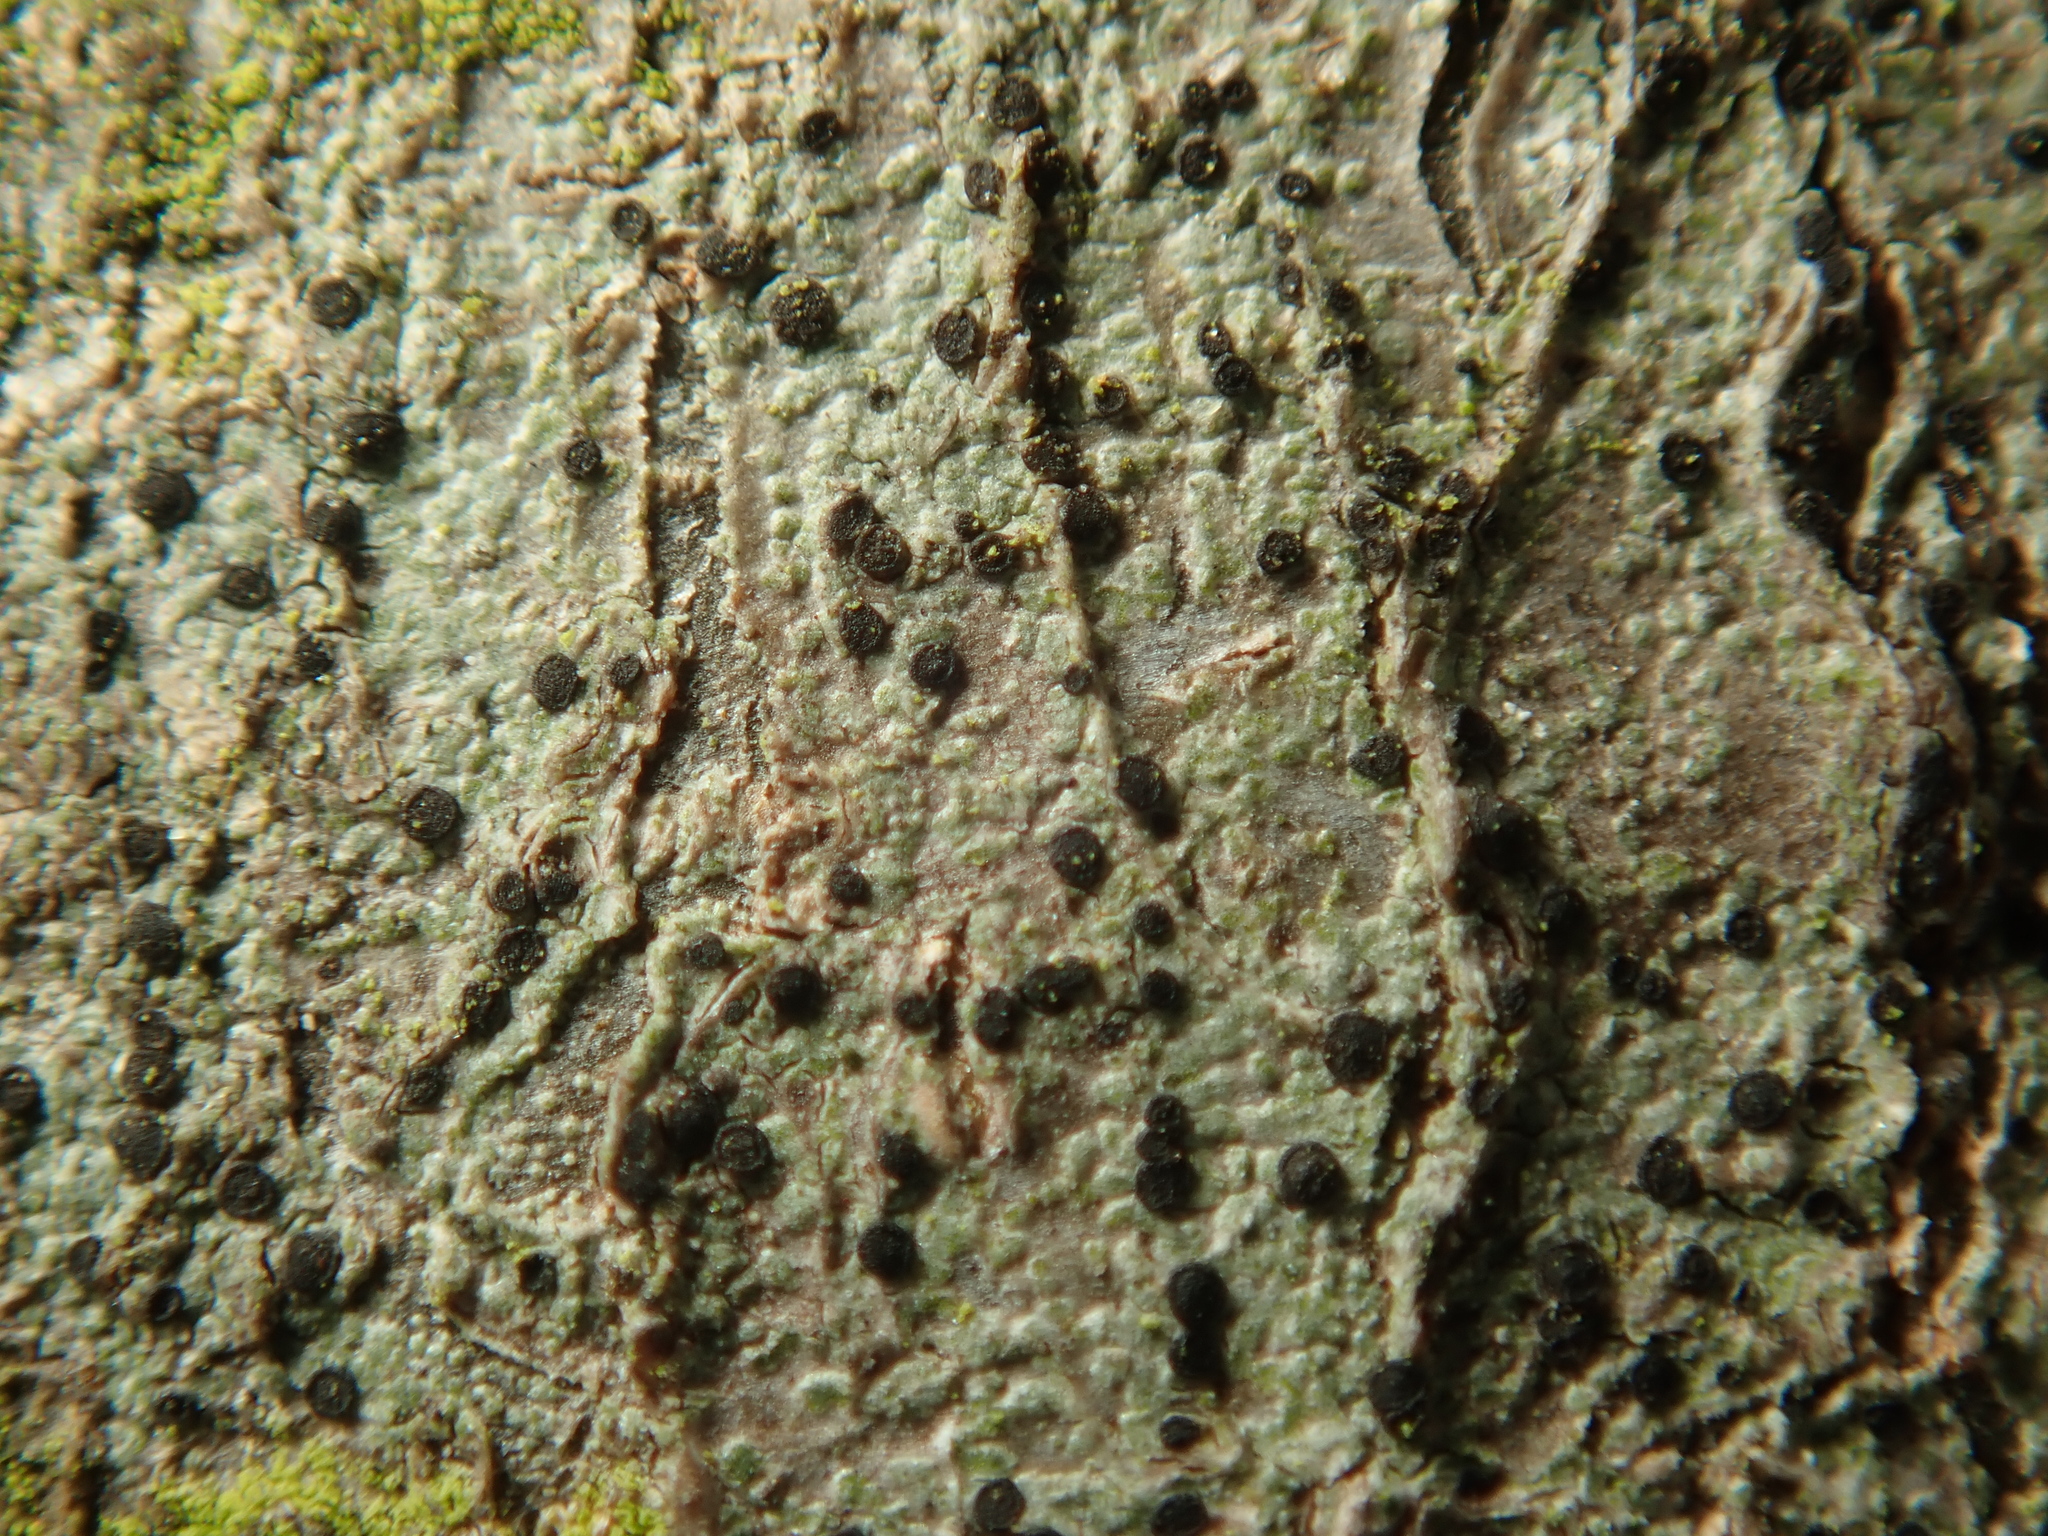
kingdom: Fungi
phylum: Ascomycota
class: Lecanoromycetes
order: Lecanorales
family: Lecanoraceae
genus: Lecidella
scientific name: Lecidella elaeochroma
